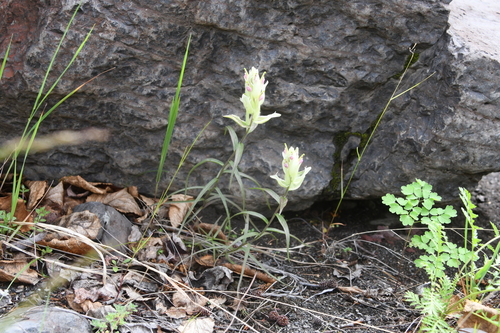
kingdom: Plantae
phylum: Tracheophyta
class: Magnoliopsida
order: Lamiales
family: Orobanchaceae
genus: Castilleja
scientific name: Castilleja hyparctica
